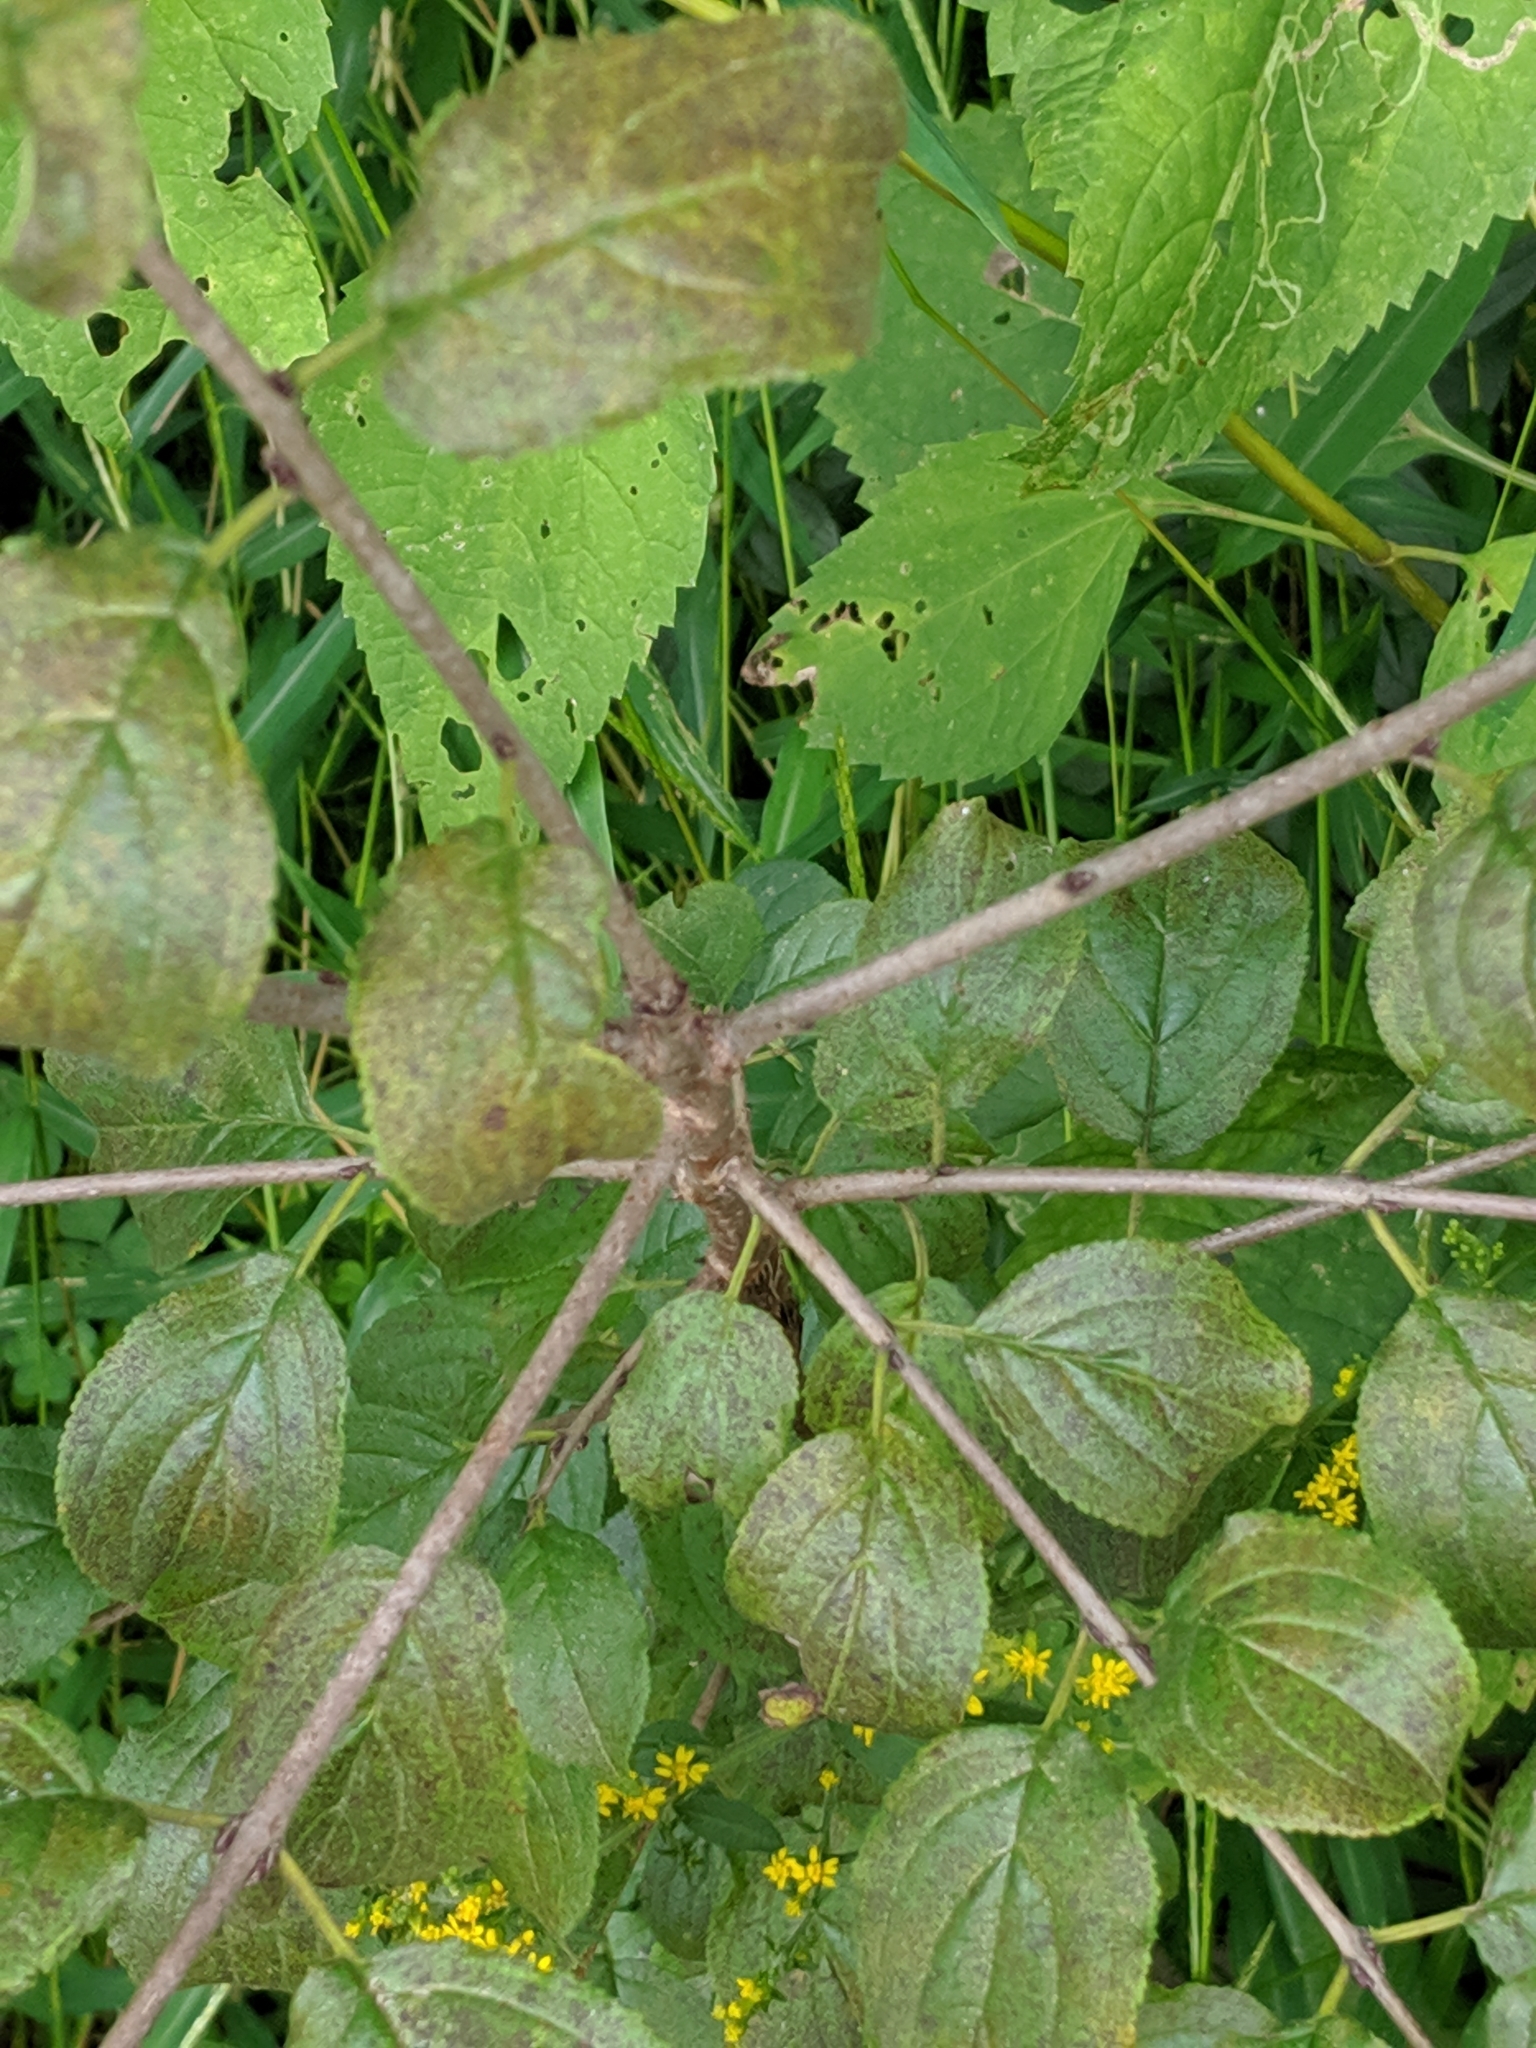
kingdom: Plantae
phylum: Tracheophyta
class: Magnoliopsida
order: Rosales
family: Rhamnaceae
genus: Rhamnus
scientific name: Rhamnus cathartica
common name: Common buckthorn
